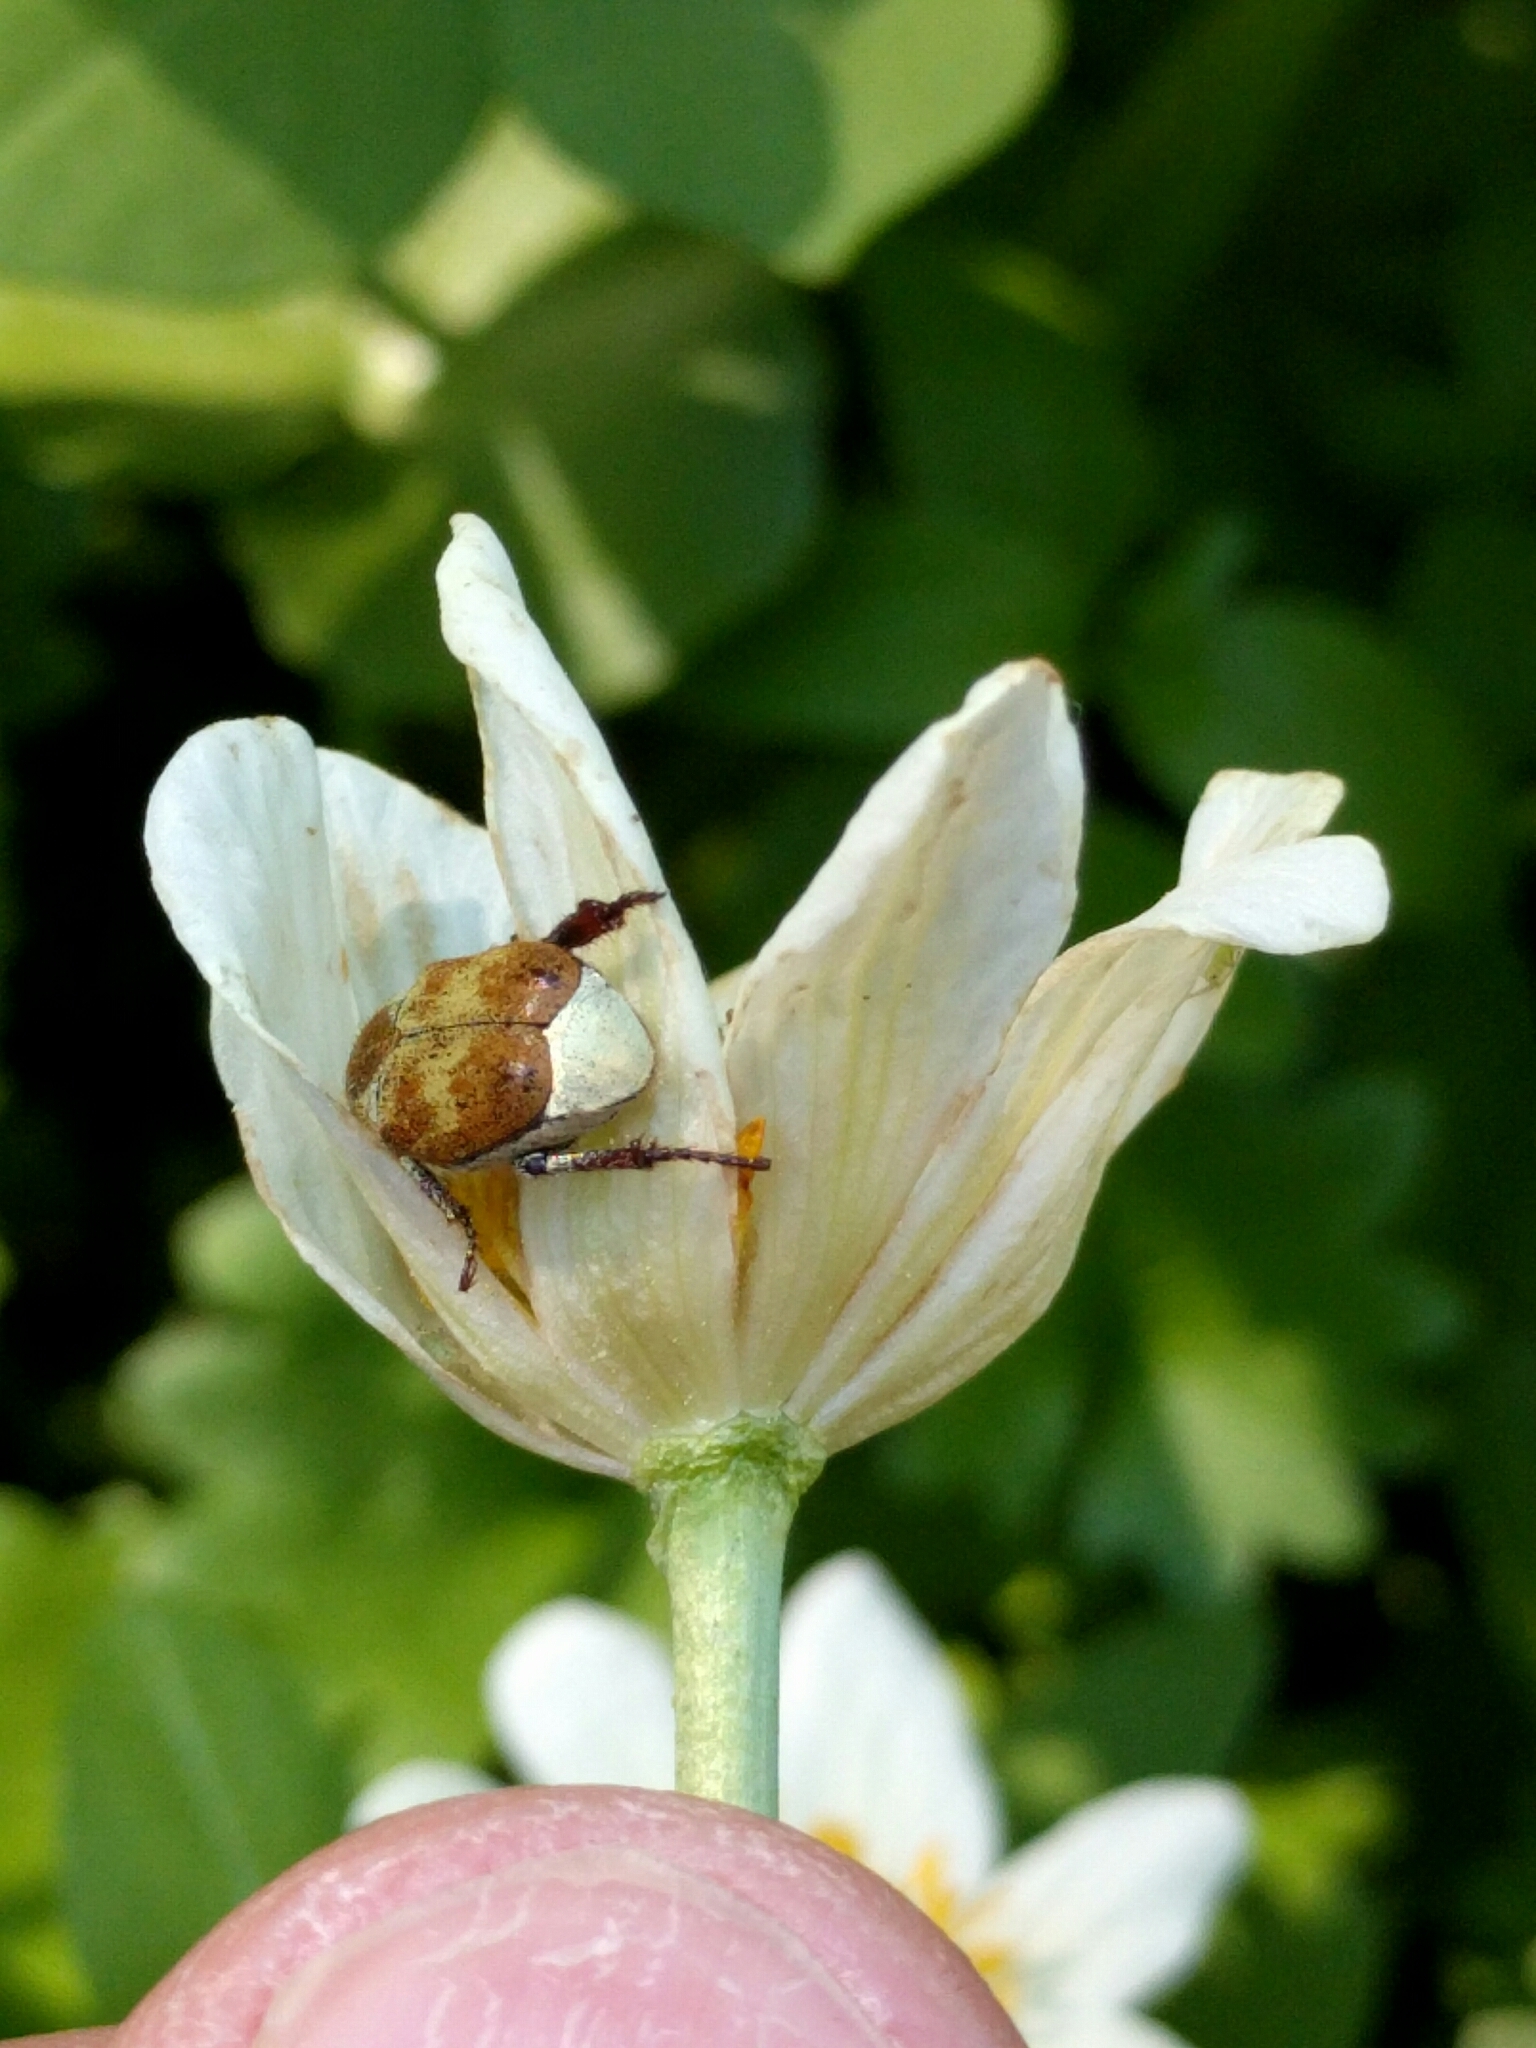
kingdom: Plantae
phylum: Tracheophyta
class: Magnoliopsida
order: Ranunculales
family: Ranunculaceae
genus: Caltha
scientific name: Caltha leptosepala
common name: Elkslip
